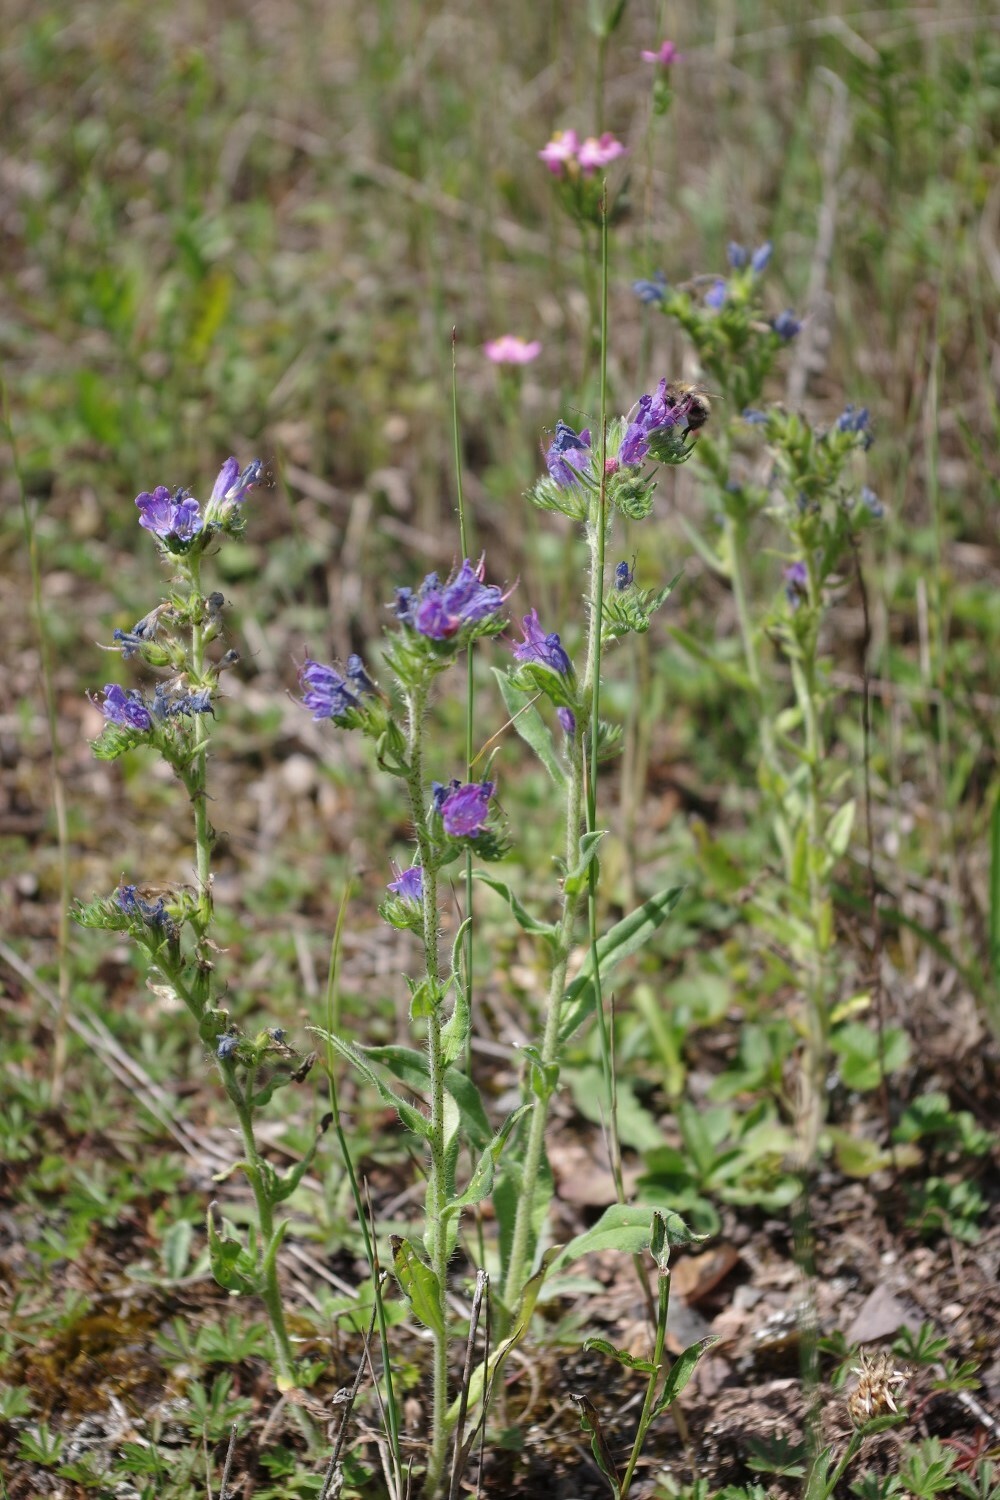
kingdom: Plantae
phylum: Tracheophyta
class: Magnoliopsida
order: Boraginales
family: Boraginaceae
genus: Echium
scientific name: Echium vulgare
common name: Common viper's bugloss
